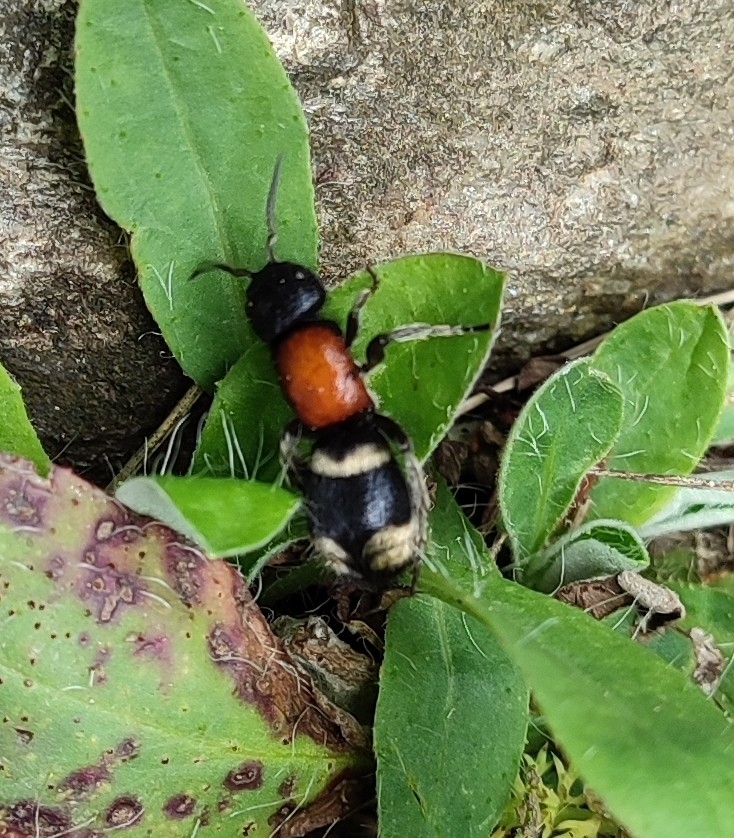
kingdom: Animalia
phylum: Arthropoda
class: Insecta
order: Hymenoptera
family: Mutillidae
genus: Mutilla
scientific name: Mutilla europaea
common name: Large velvet ant
